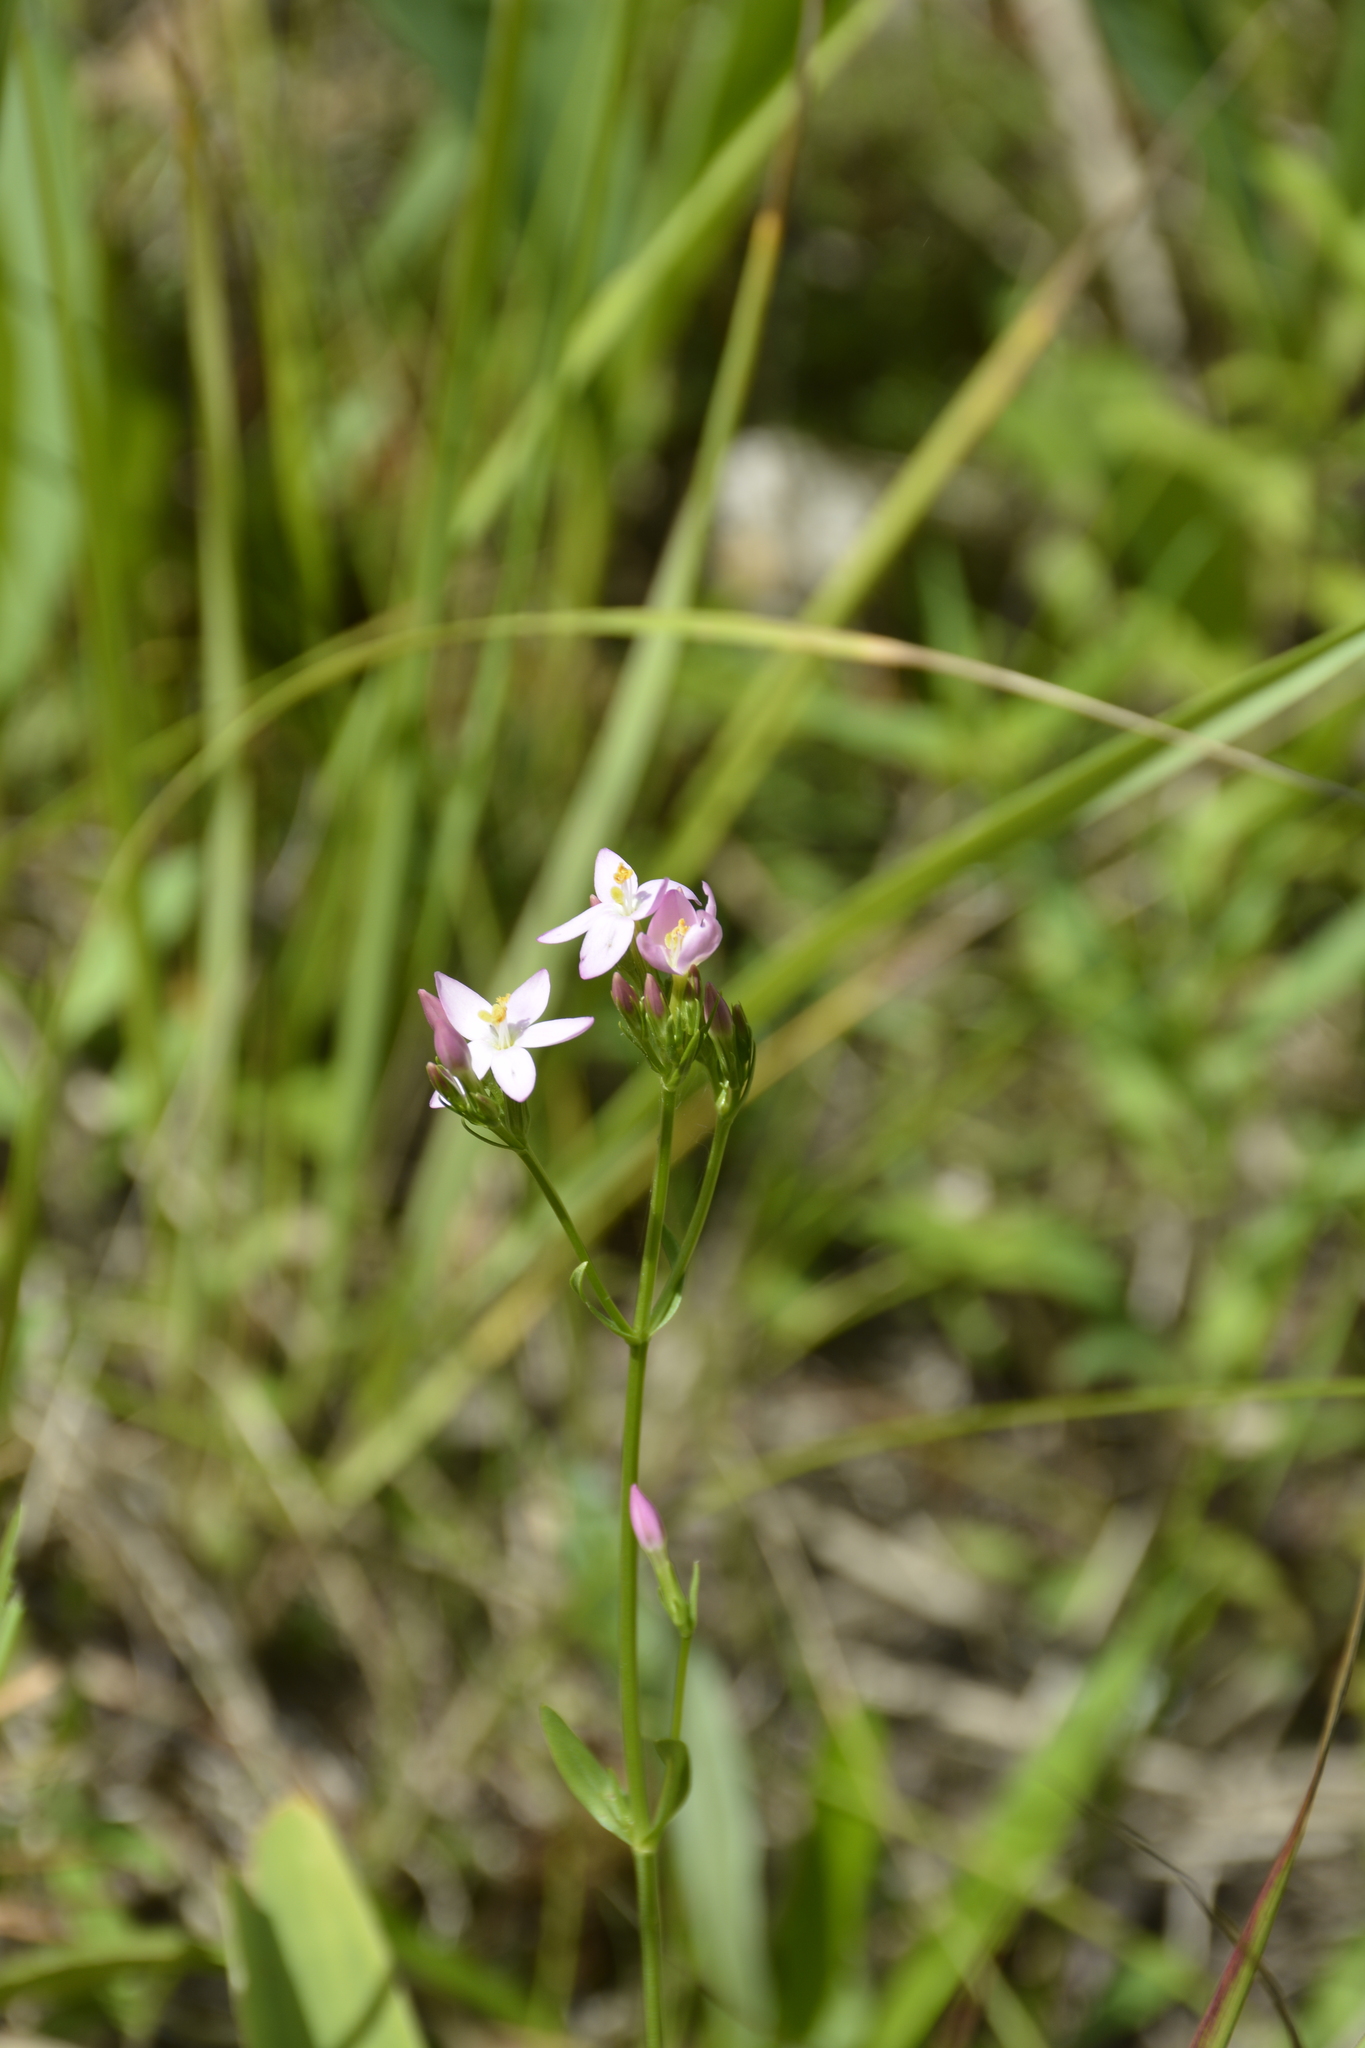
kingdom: Plantae
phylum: Tracheophyta
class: Magnoliopsida
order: Gentianales
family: Gentianaceae
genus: Centaurium
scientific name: Centaurium erythraea
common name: Common centaury
